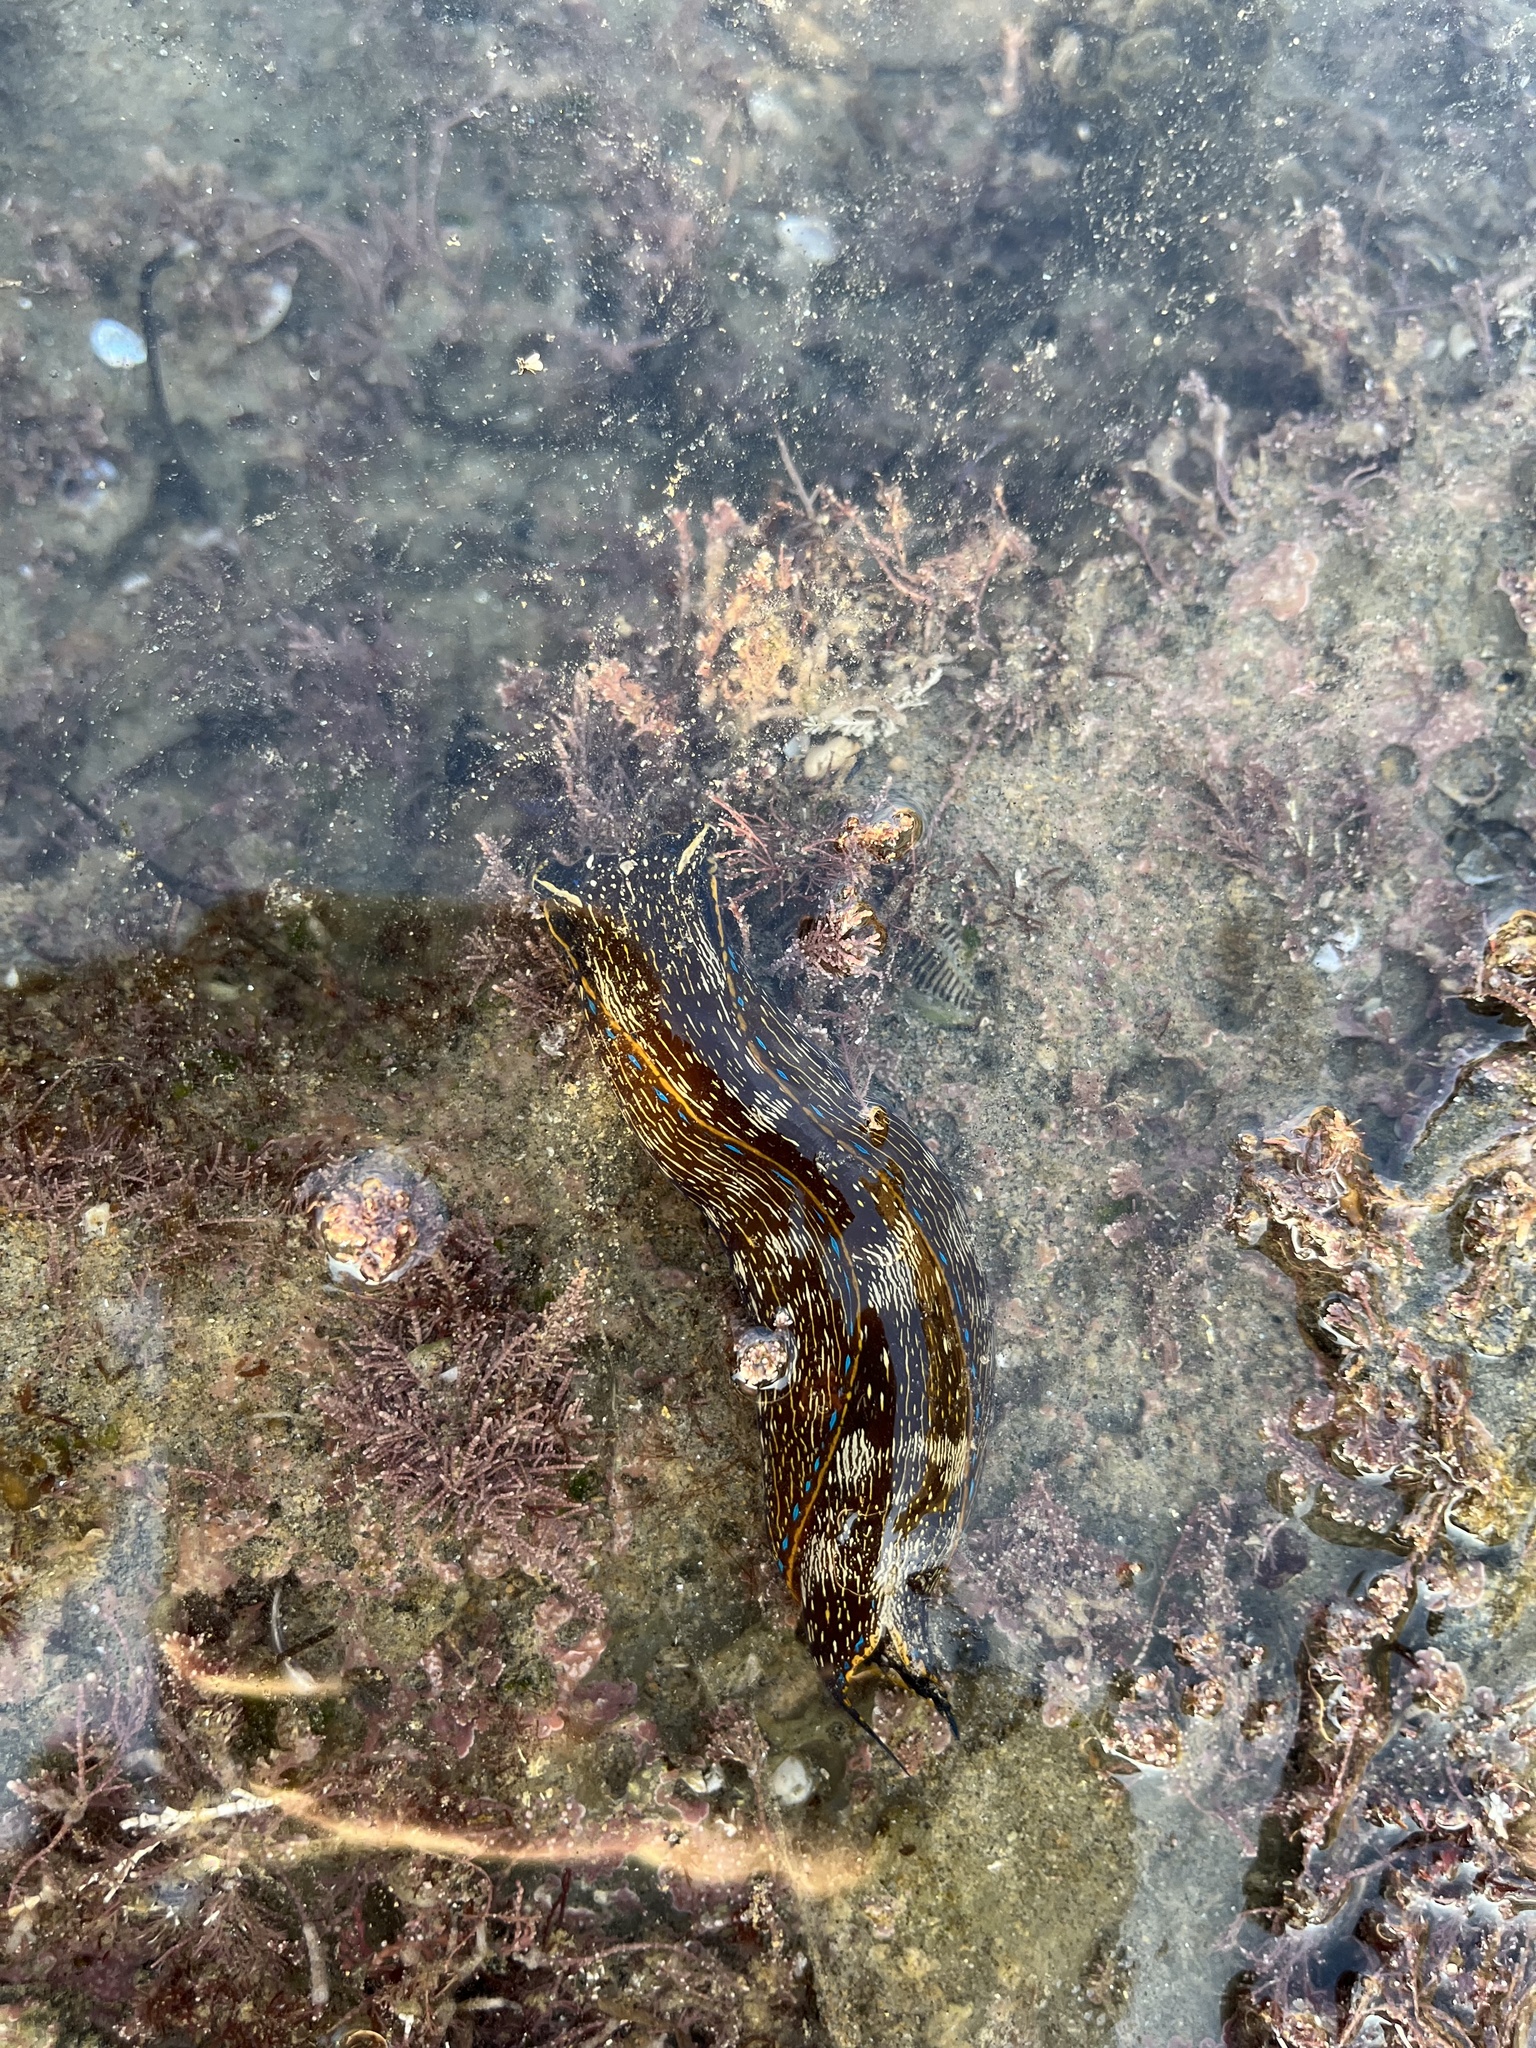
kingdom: Animalia
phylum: Mollusca
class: Gastropoda
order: Cephalaspidea
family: Aglajidae
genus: Navanax
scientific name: Navanax inermis
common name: California aglaja
